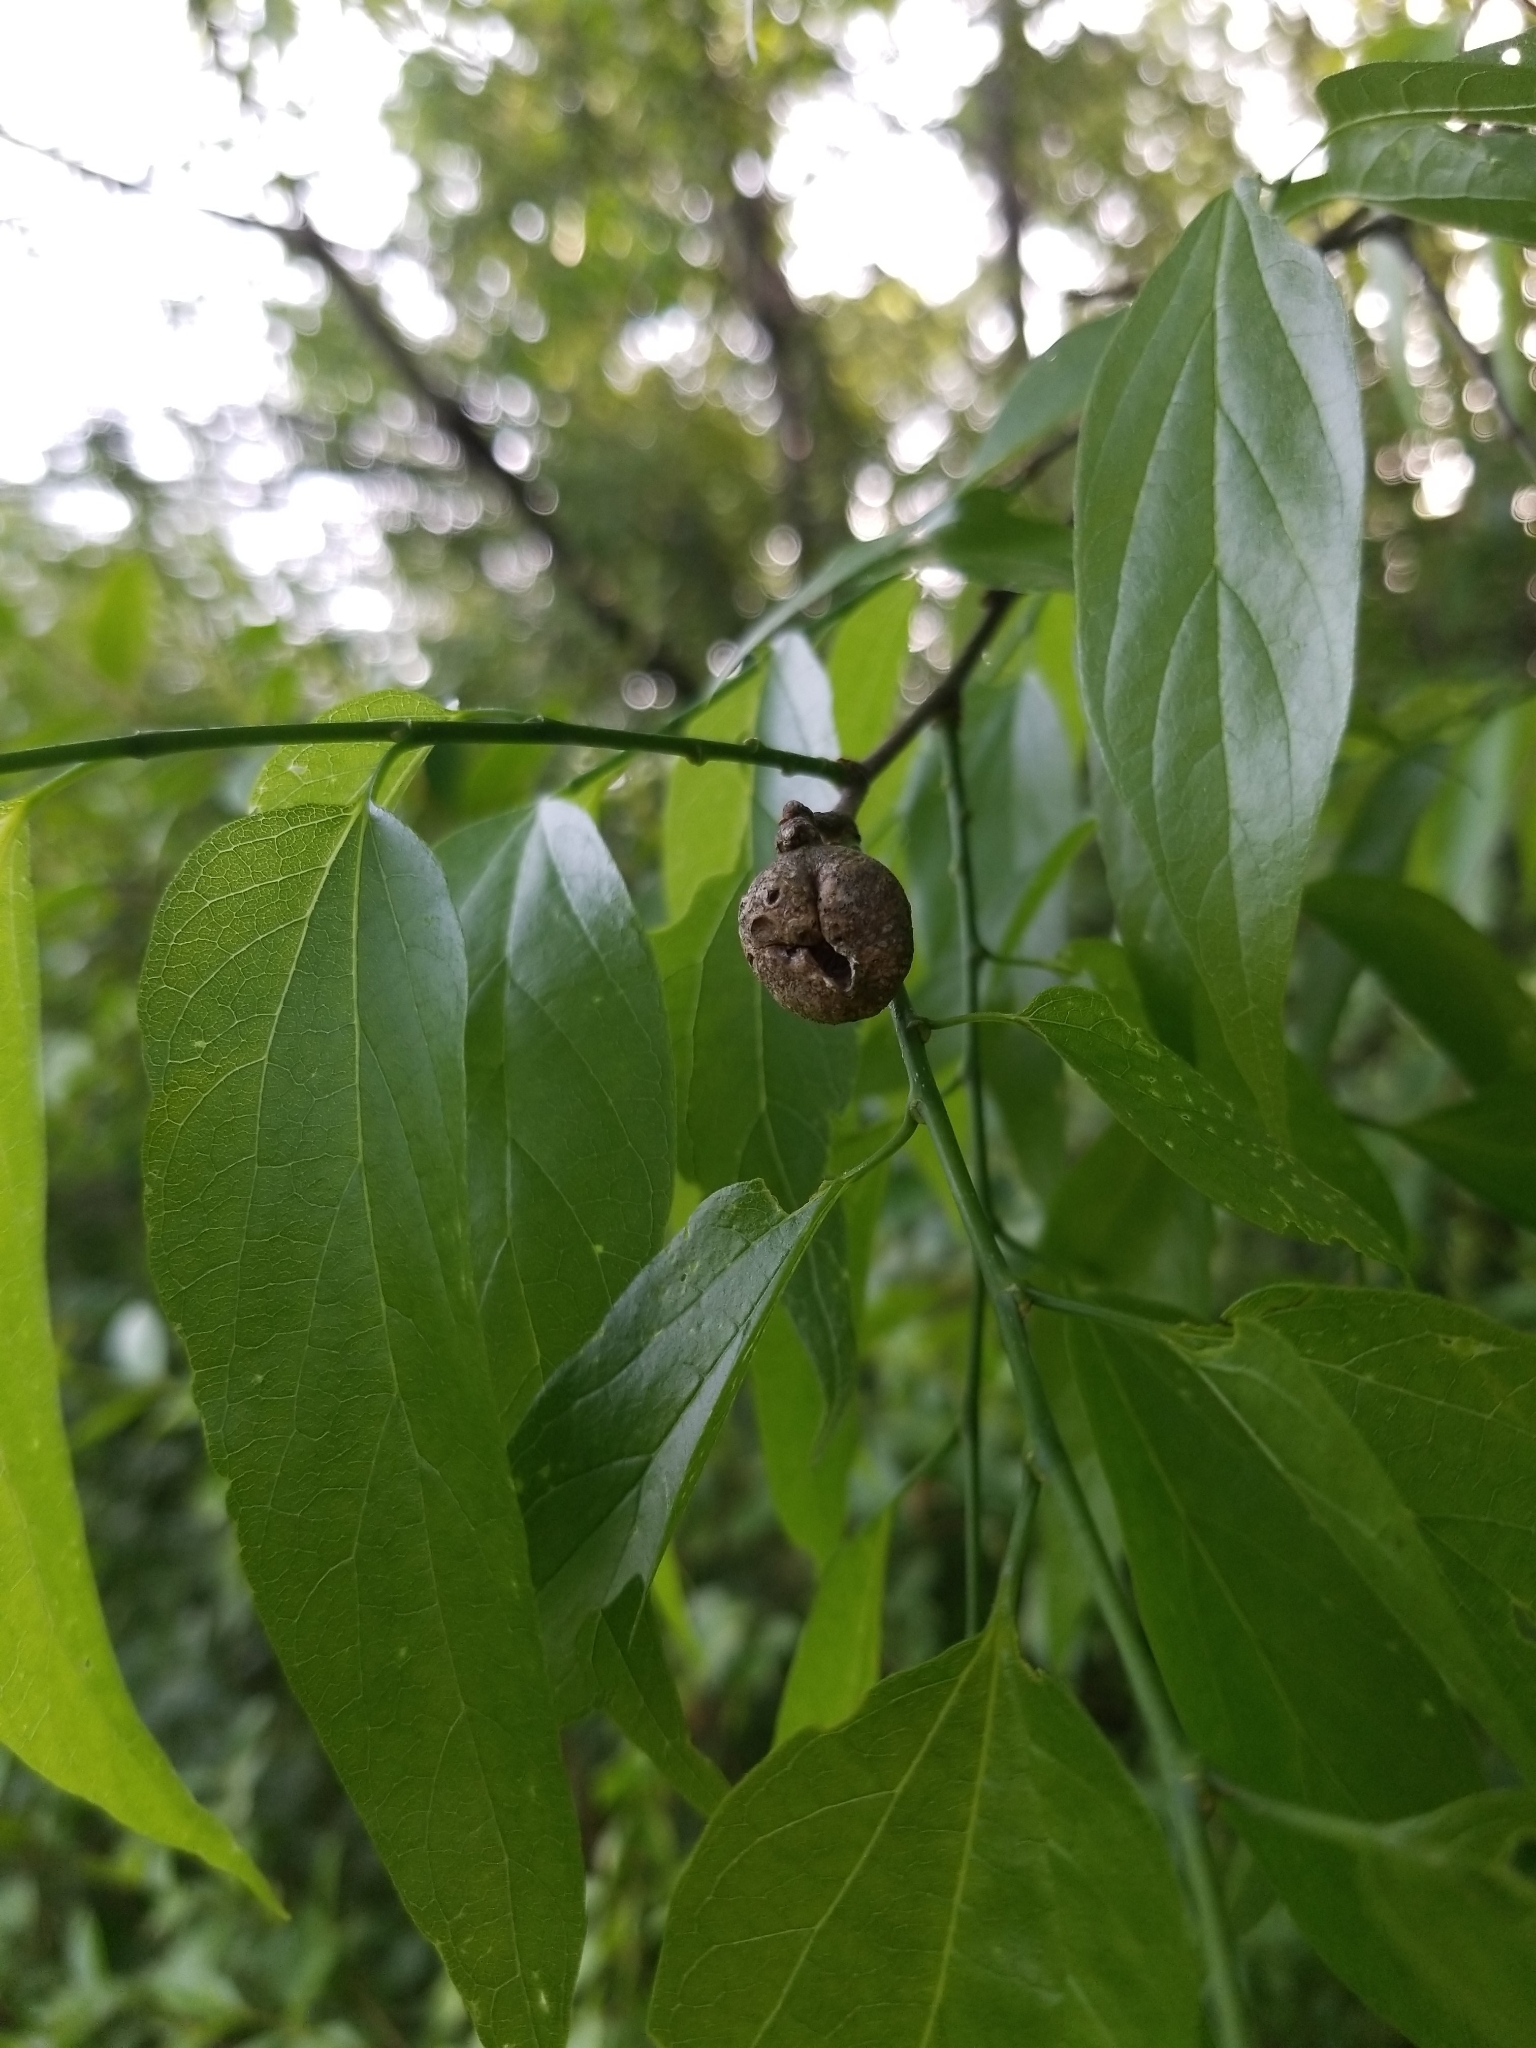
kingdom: Animalia
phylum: Arthropoda
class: Insecta
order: Hemiptera
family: Aphalaridae
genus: Pachypsylla
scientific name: Pachypsylla venusta
